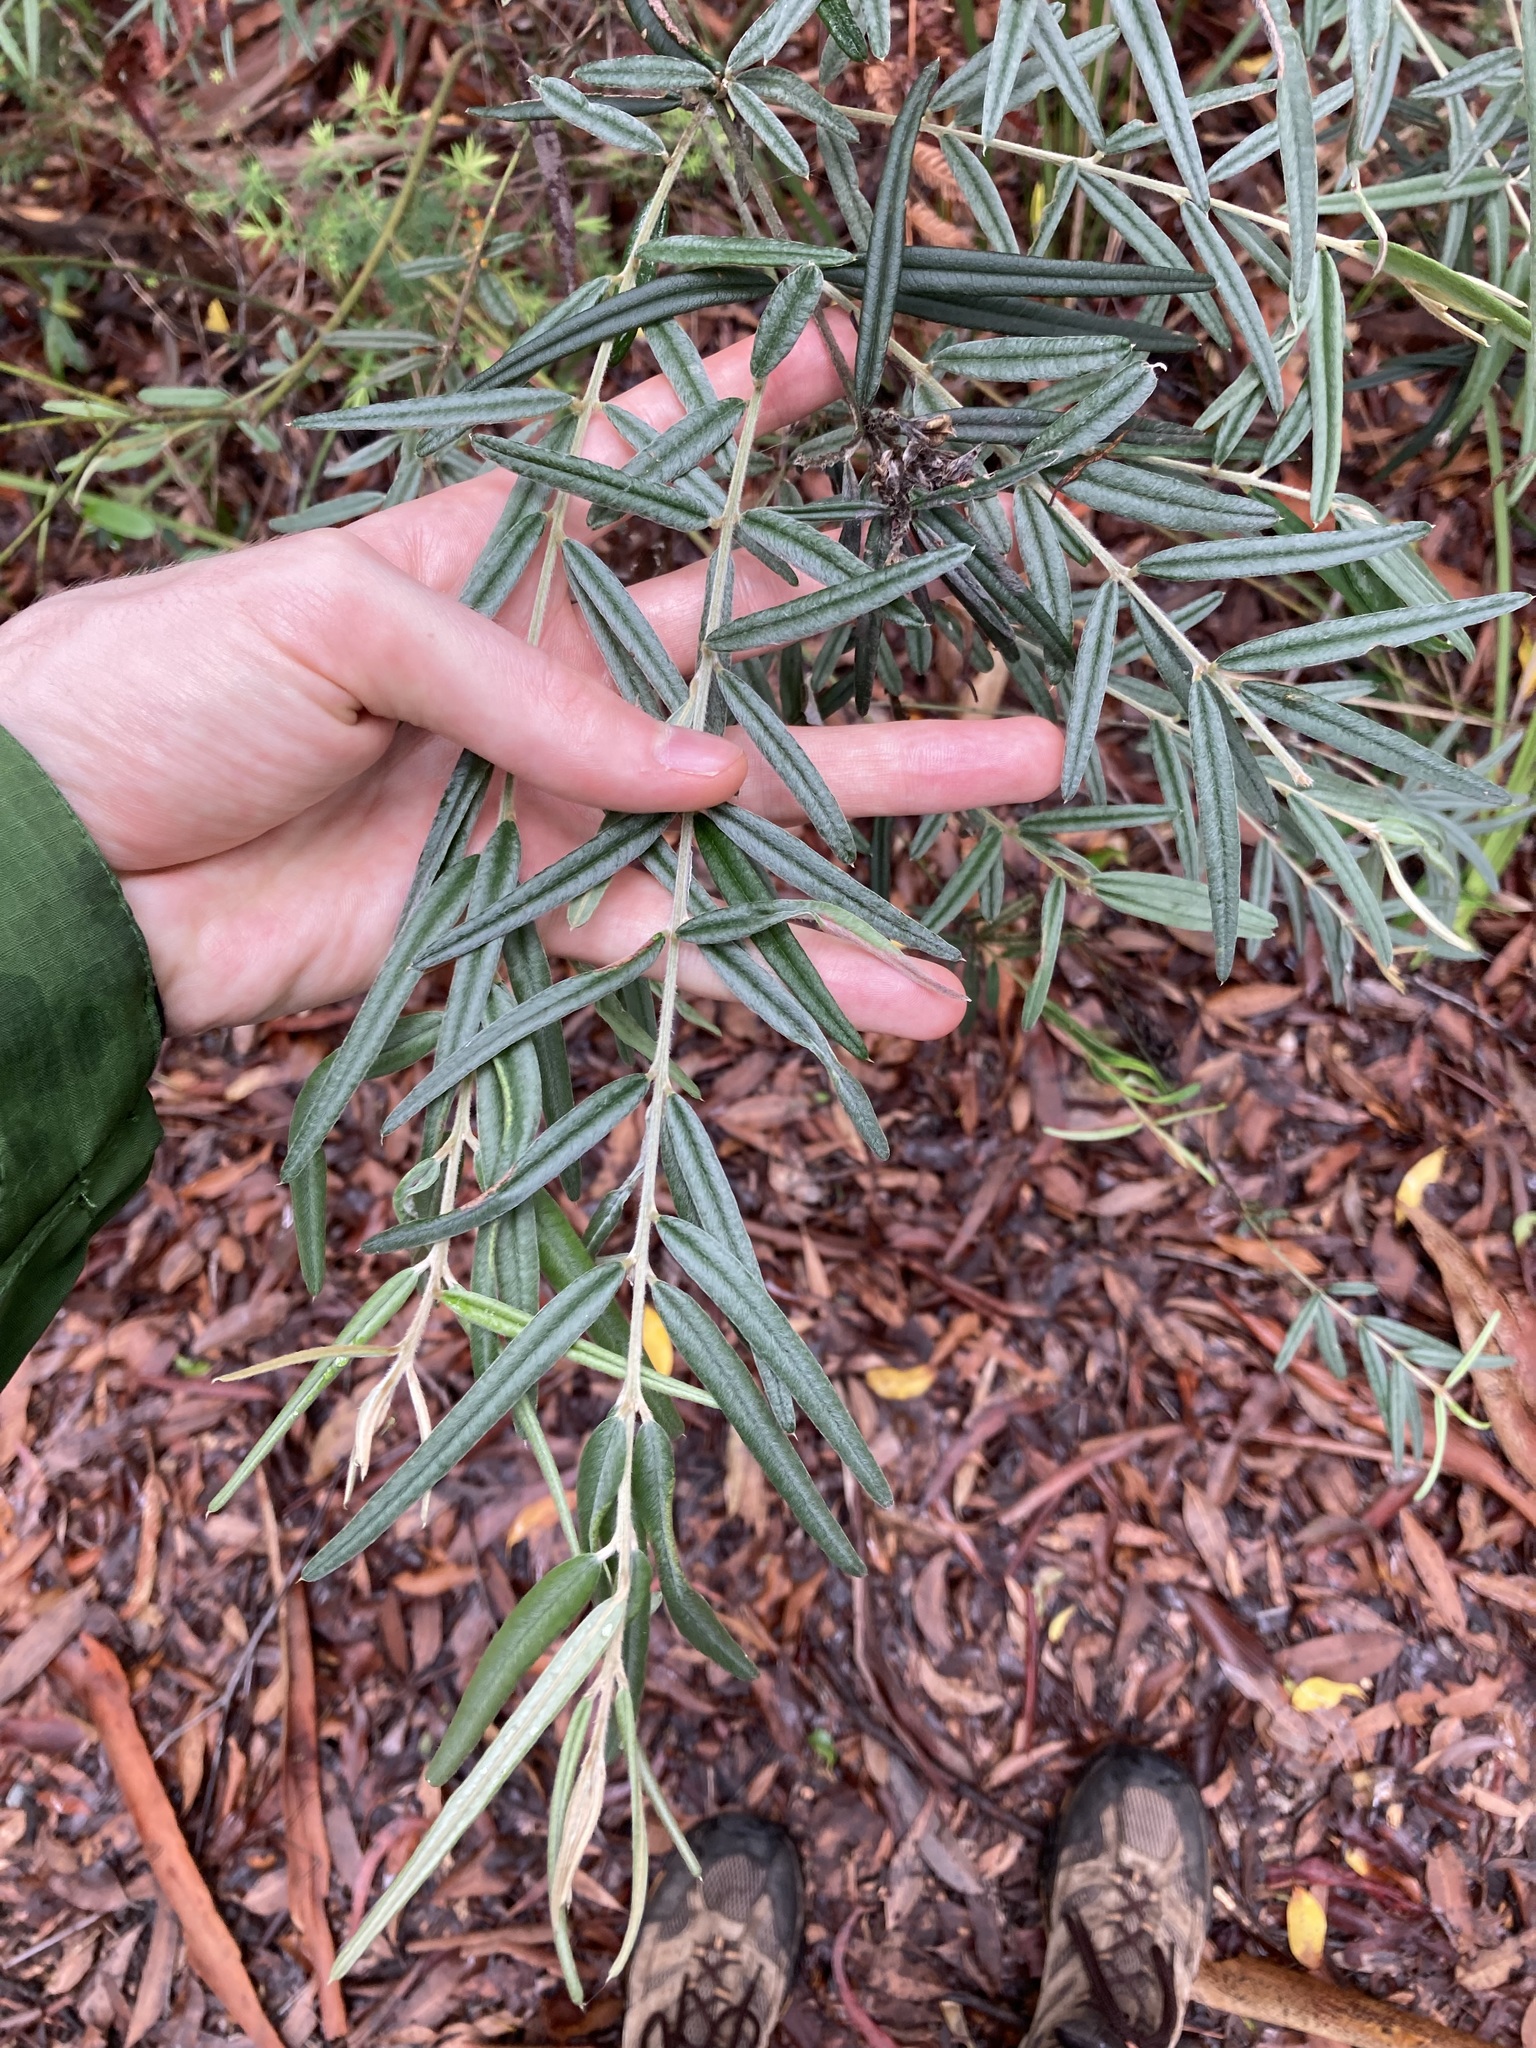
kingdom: Plantae
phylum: Tracheophyta
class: Magnoliopsida
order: Fabales
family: Fabaceae
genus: Oxylobium
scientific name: Oxylobium robustum
